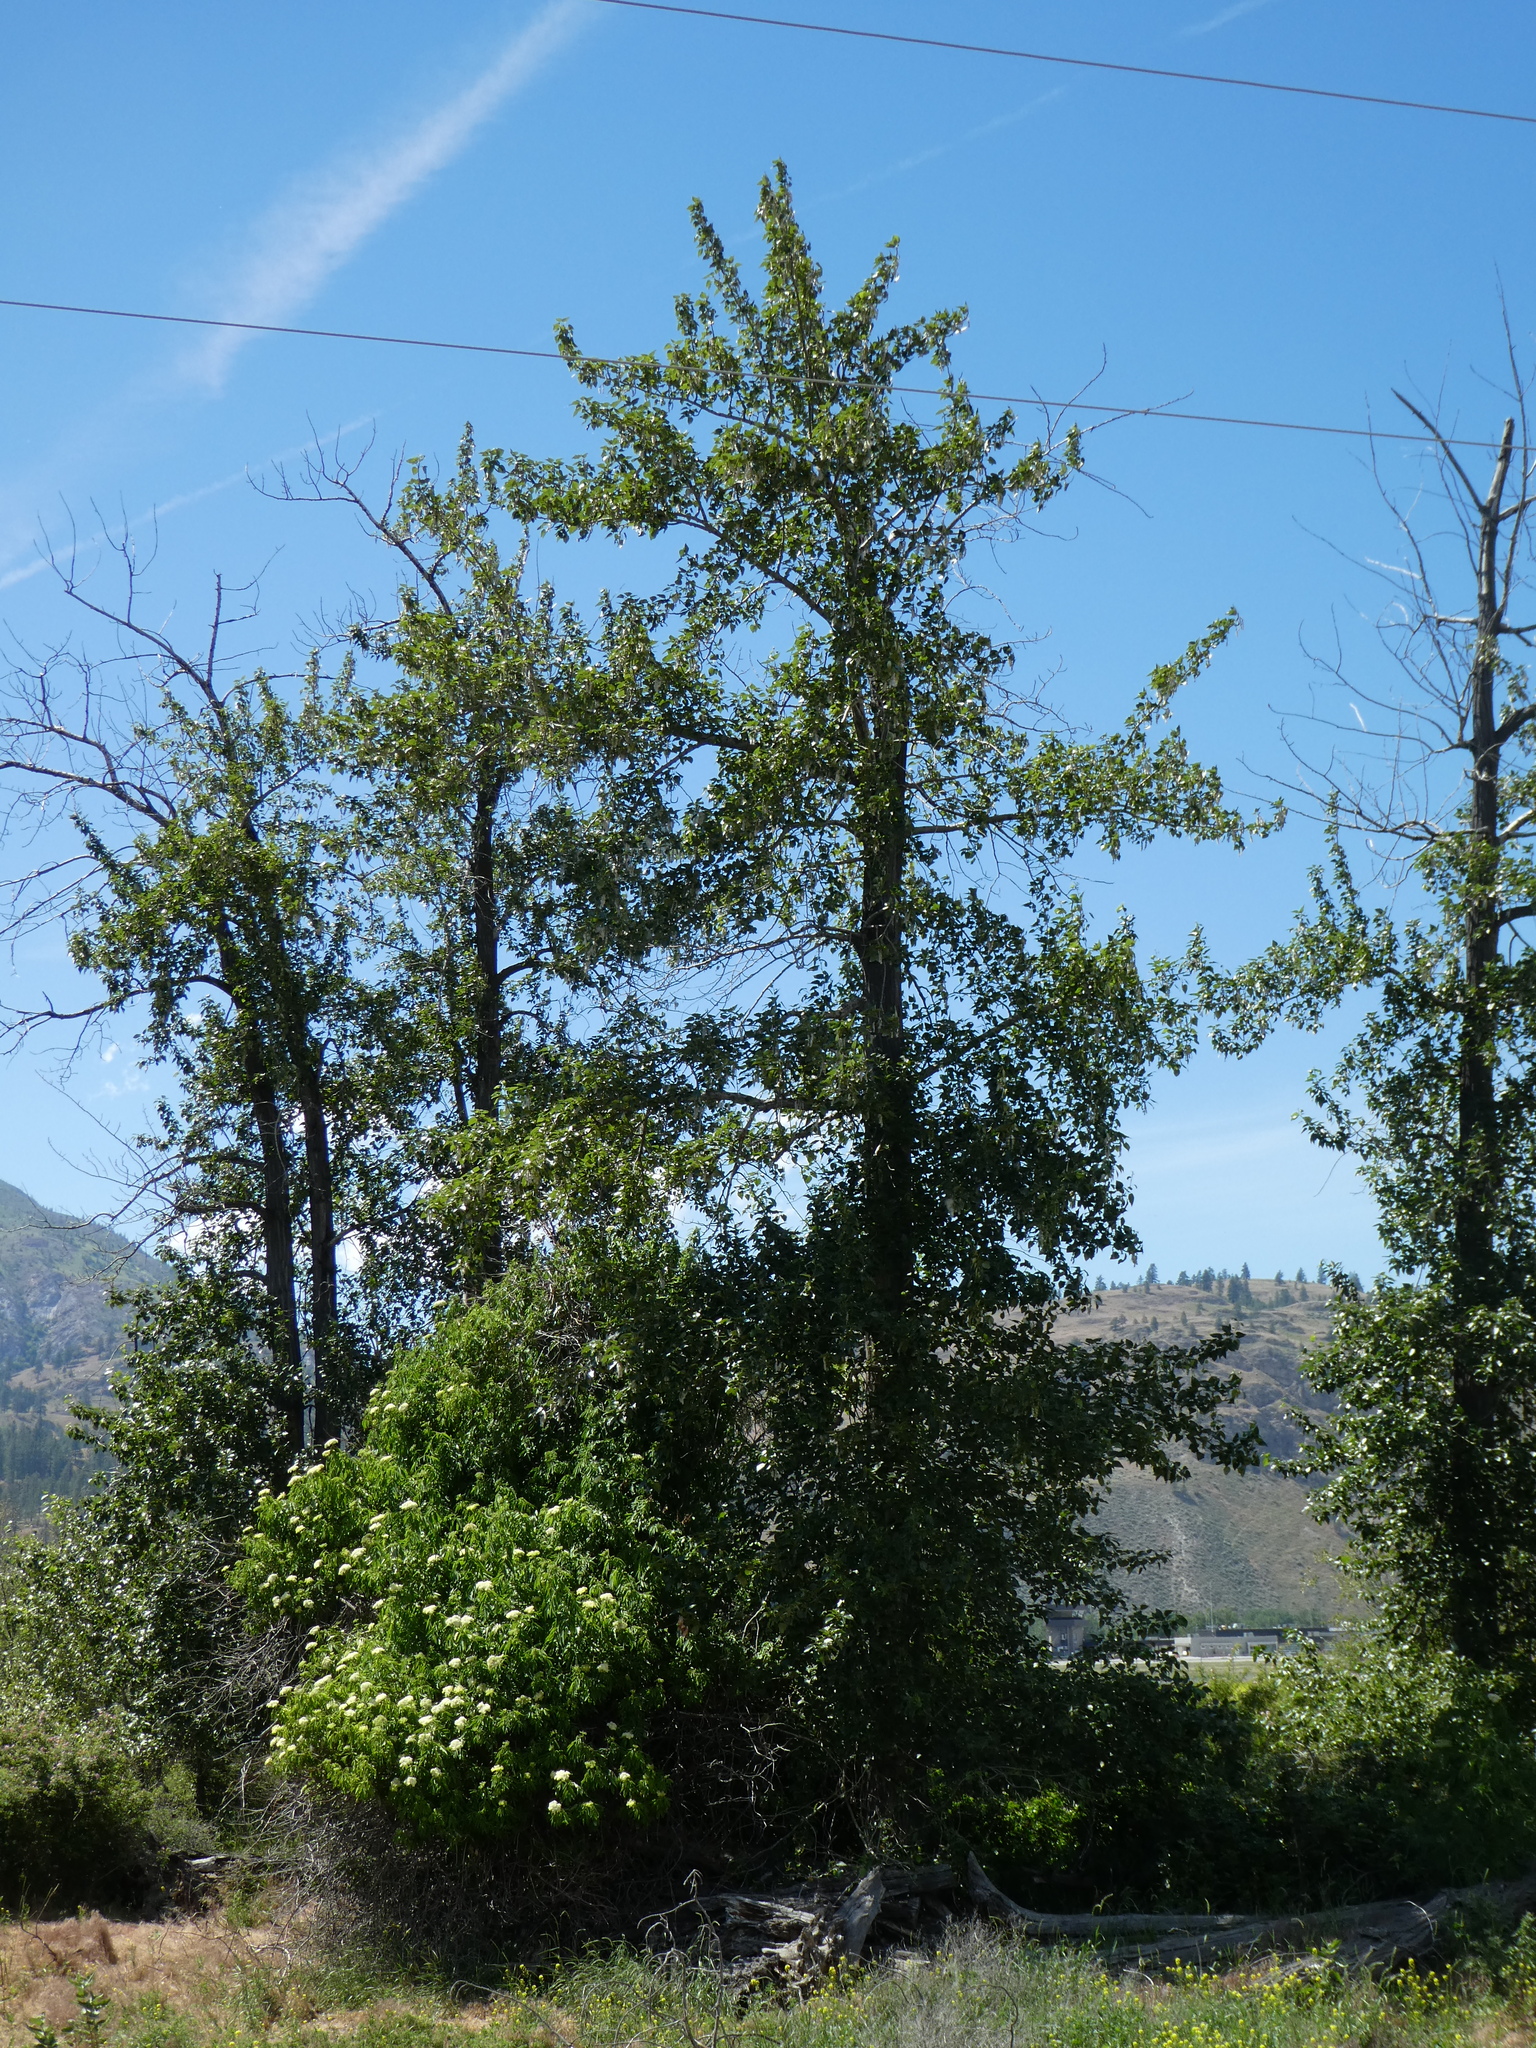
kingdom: Plantae
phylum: Tracheophyta
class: Magnoliopsida
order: Malpighiales
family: Salicaceae
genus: Populus
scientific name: Populus trichocarpa
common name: Black cottonwood
